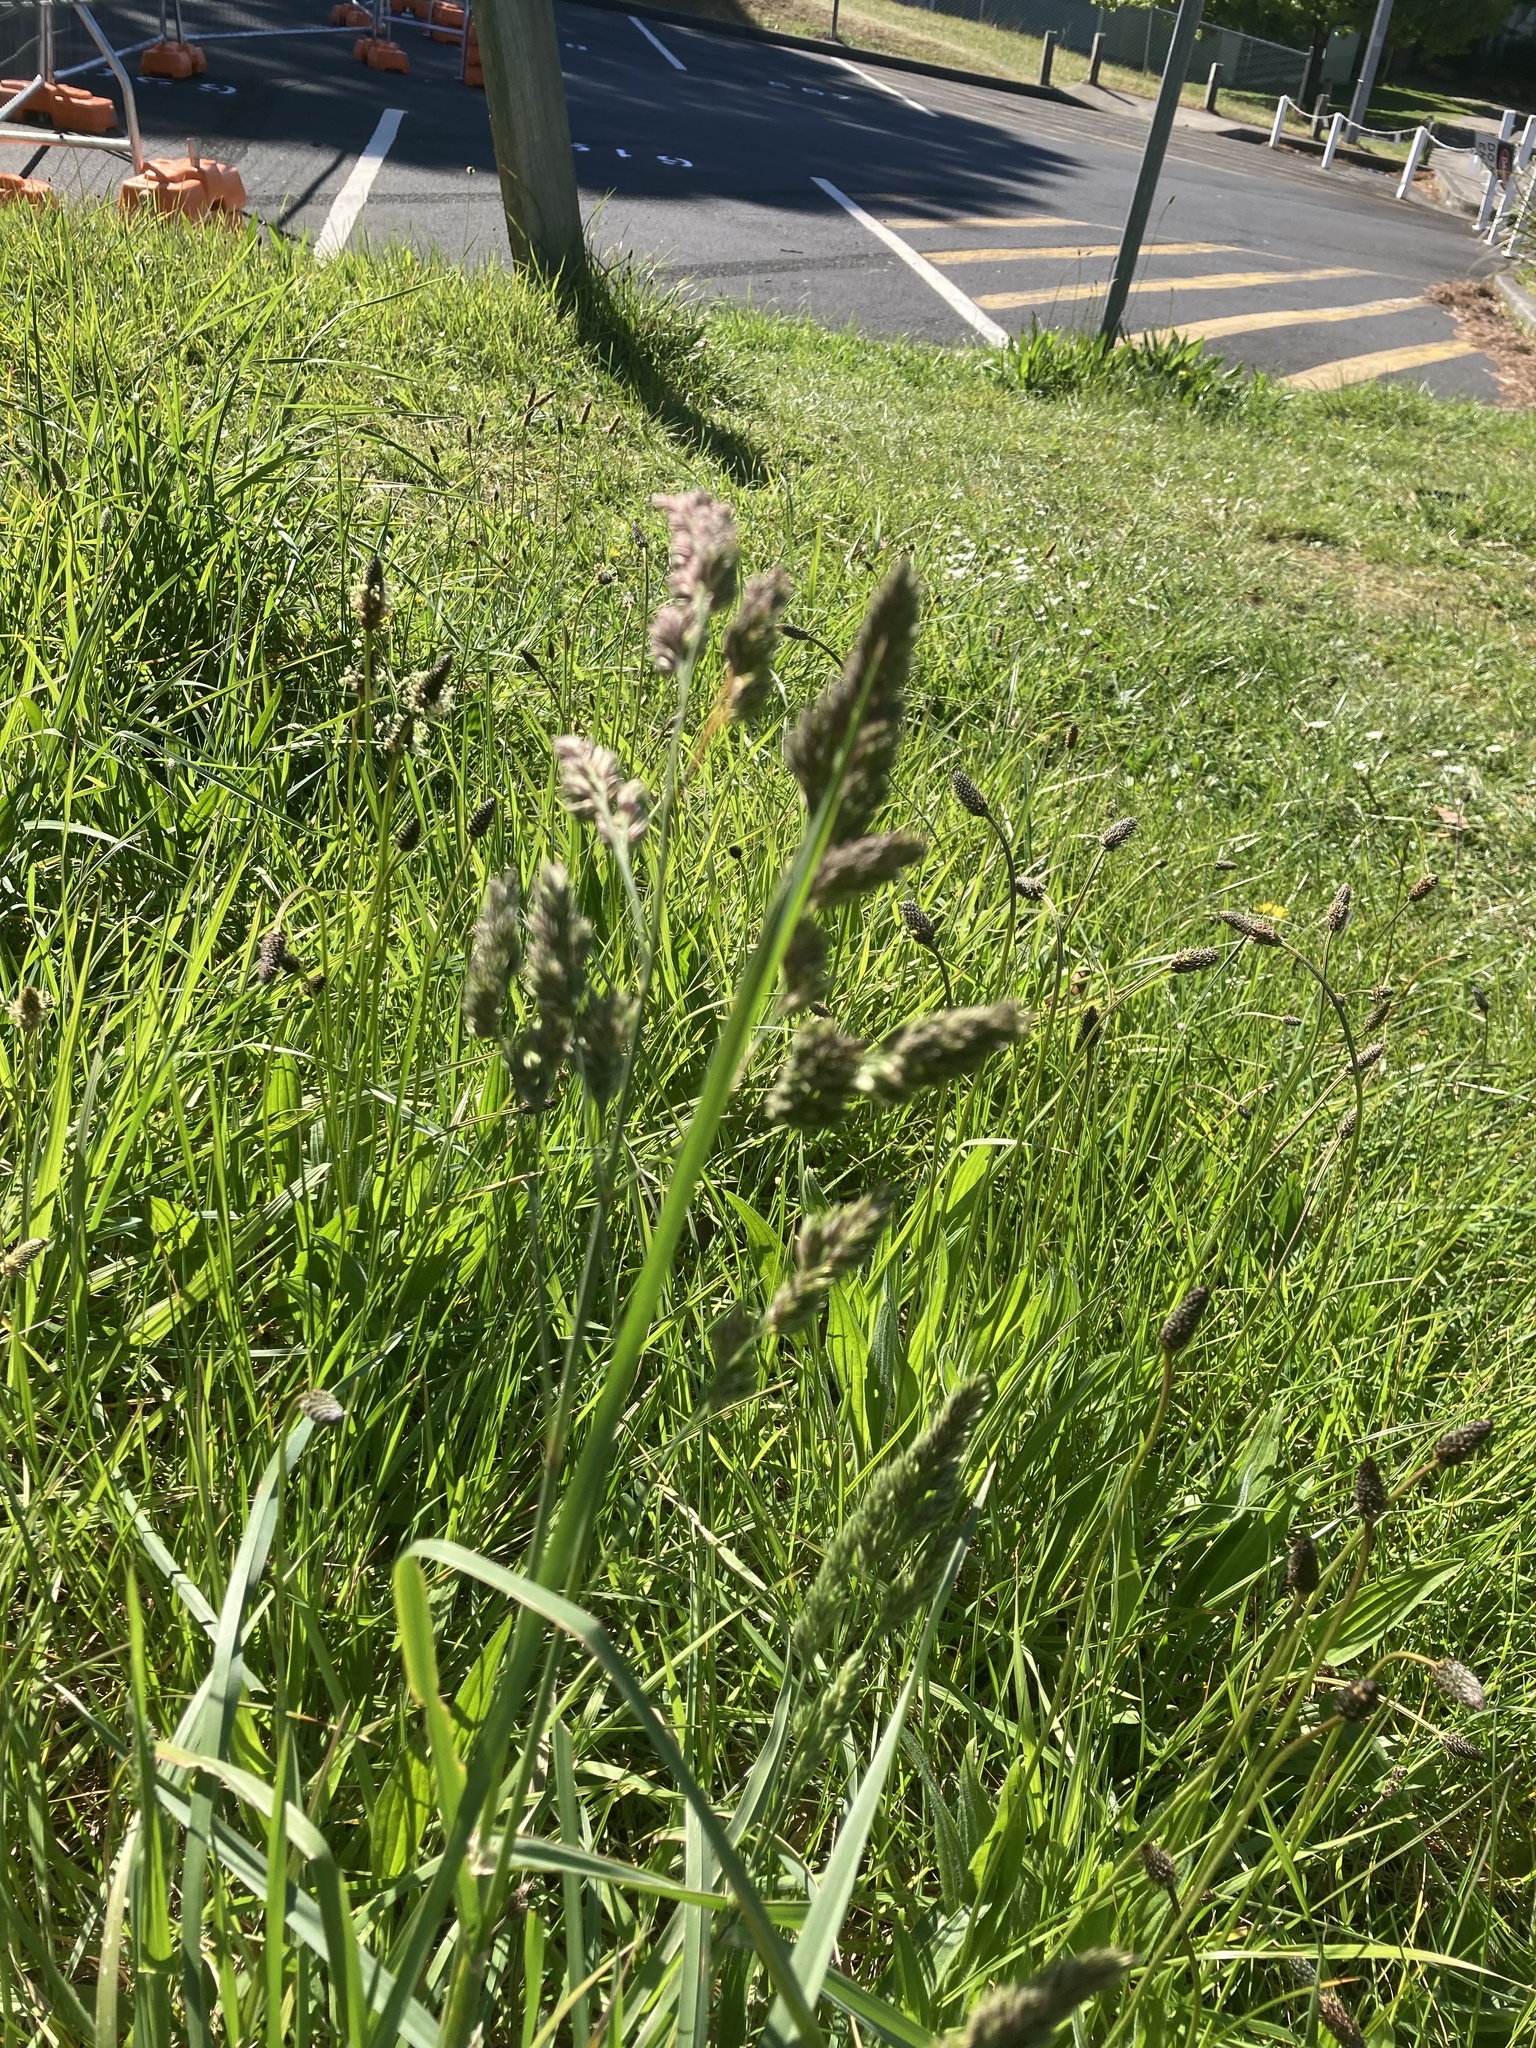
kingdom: Plantae
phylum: Tracheophyta
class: Liliopsida
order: Poales
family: Poaceae
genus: Dactylis
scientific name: Dactylis glomerata
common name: Orchardgrass
